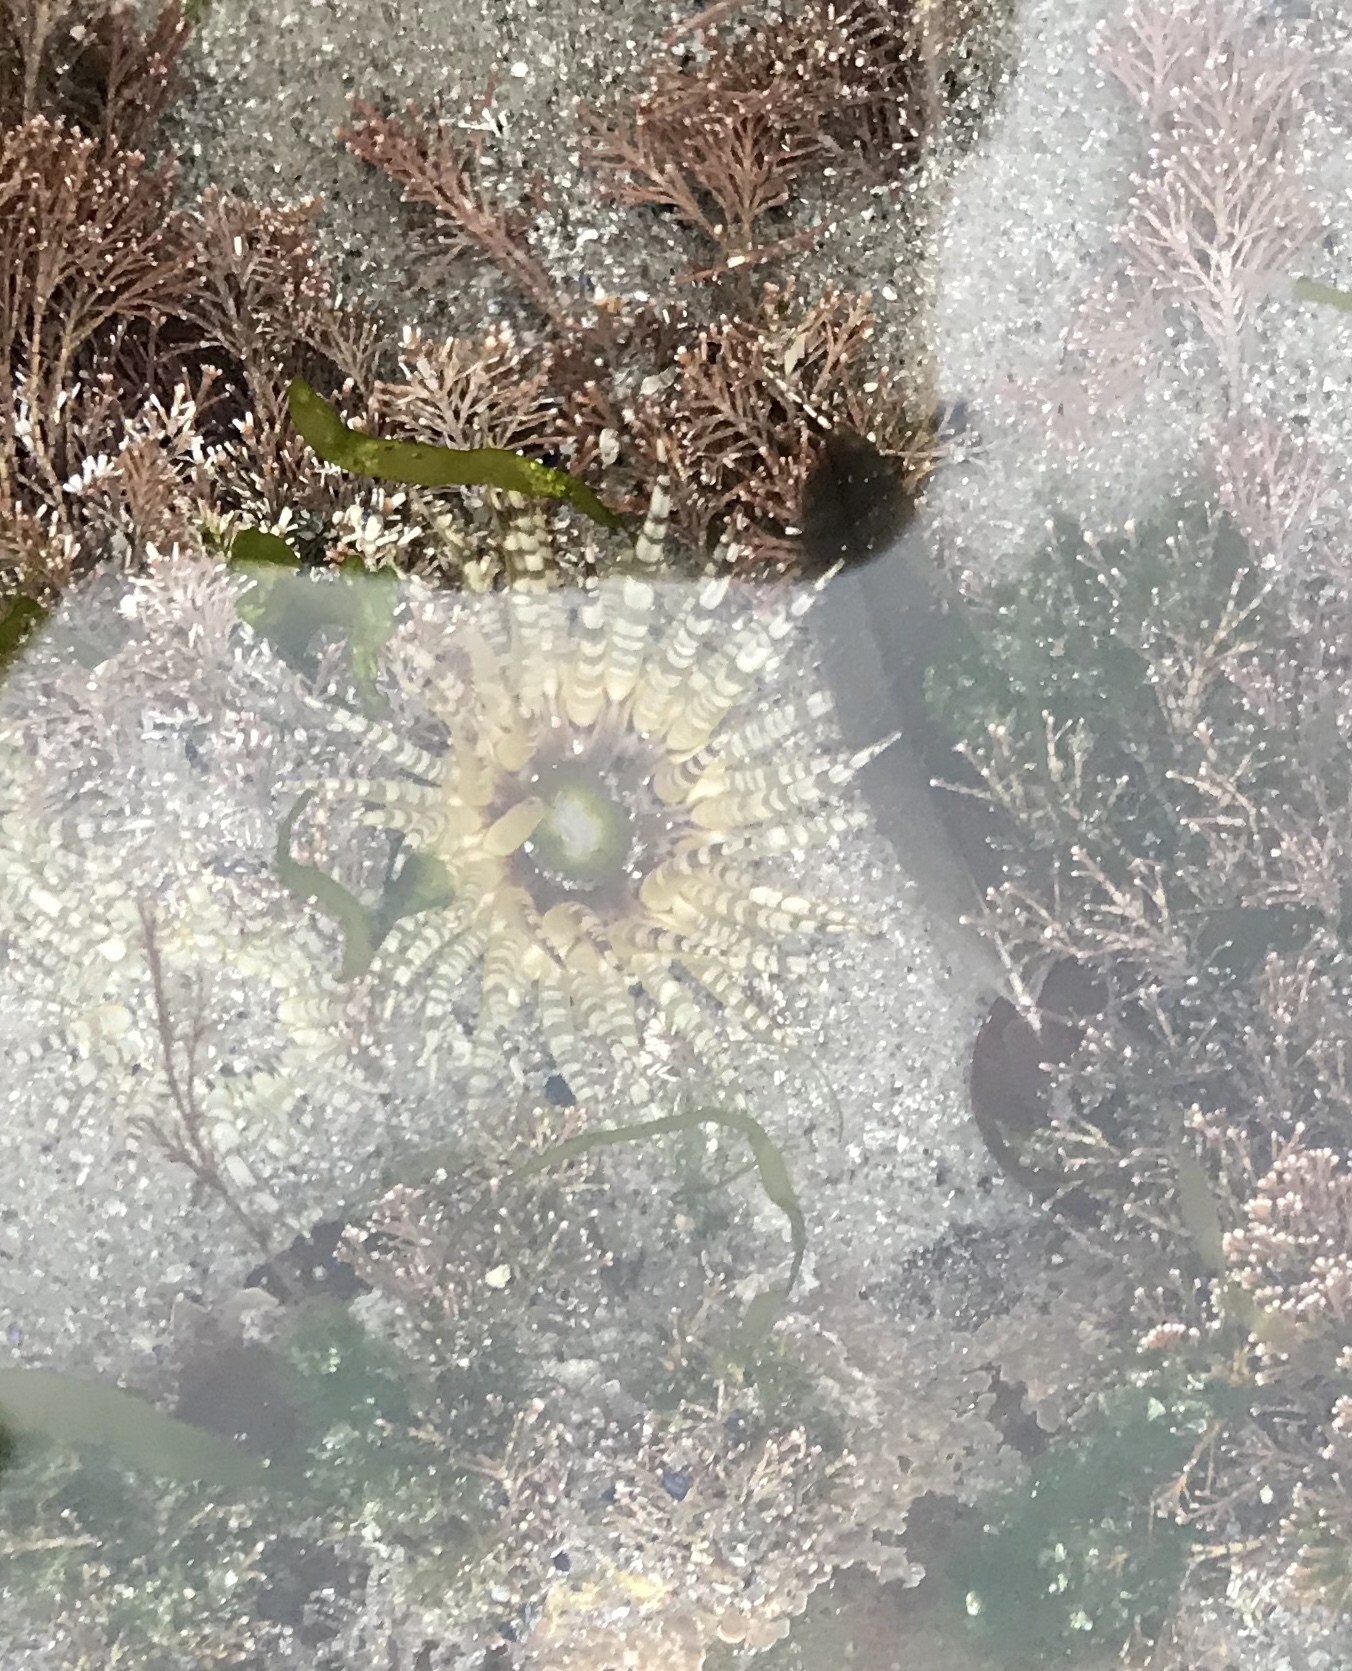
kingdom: Animalia
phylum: Cnidaria
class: Anthozoa
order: Actiniaria
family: Actiniidae
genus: Bunodactis
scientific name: Bunodactis verrucosa
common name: Gem anemone
